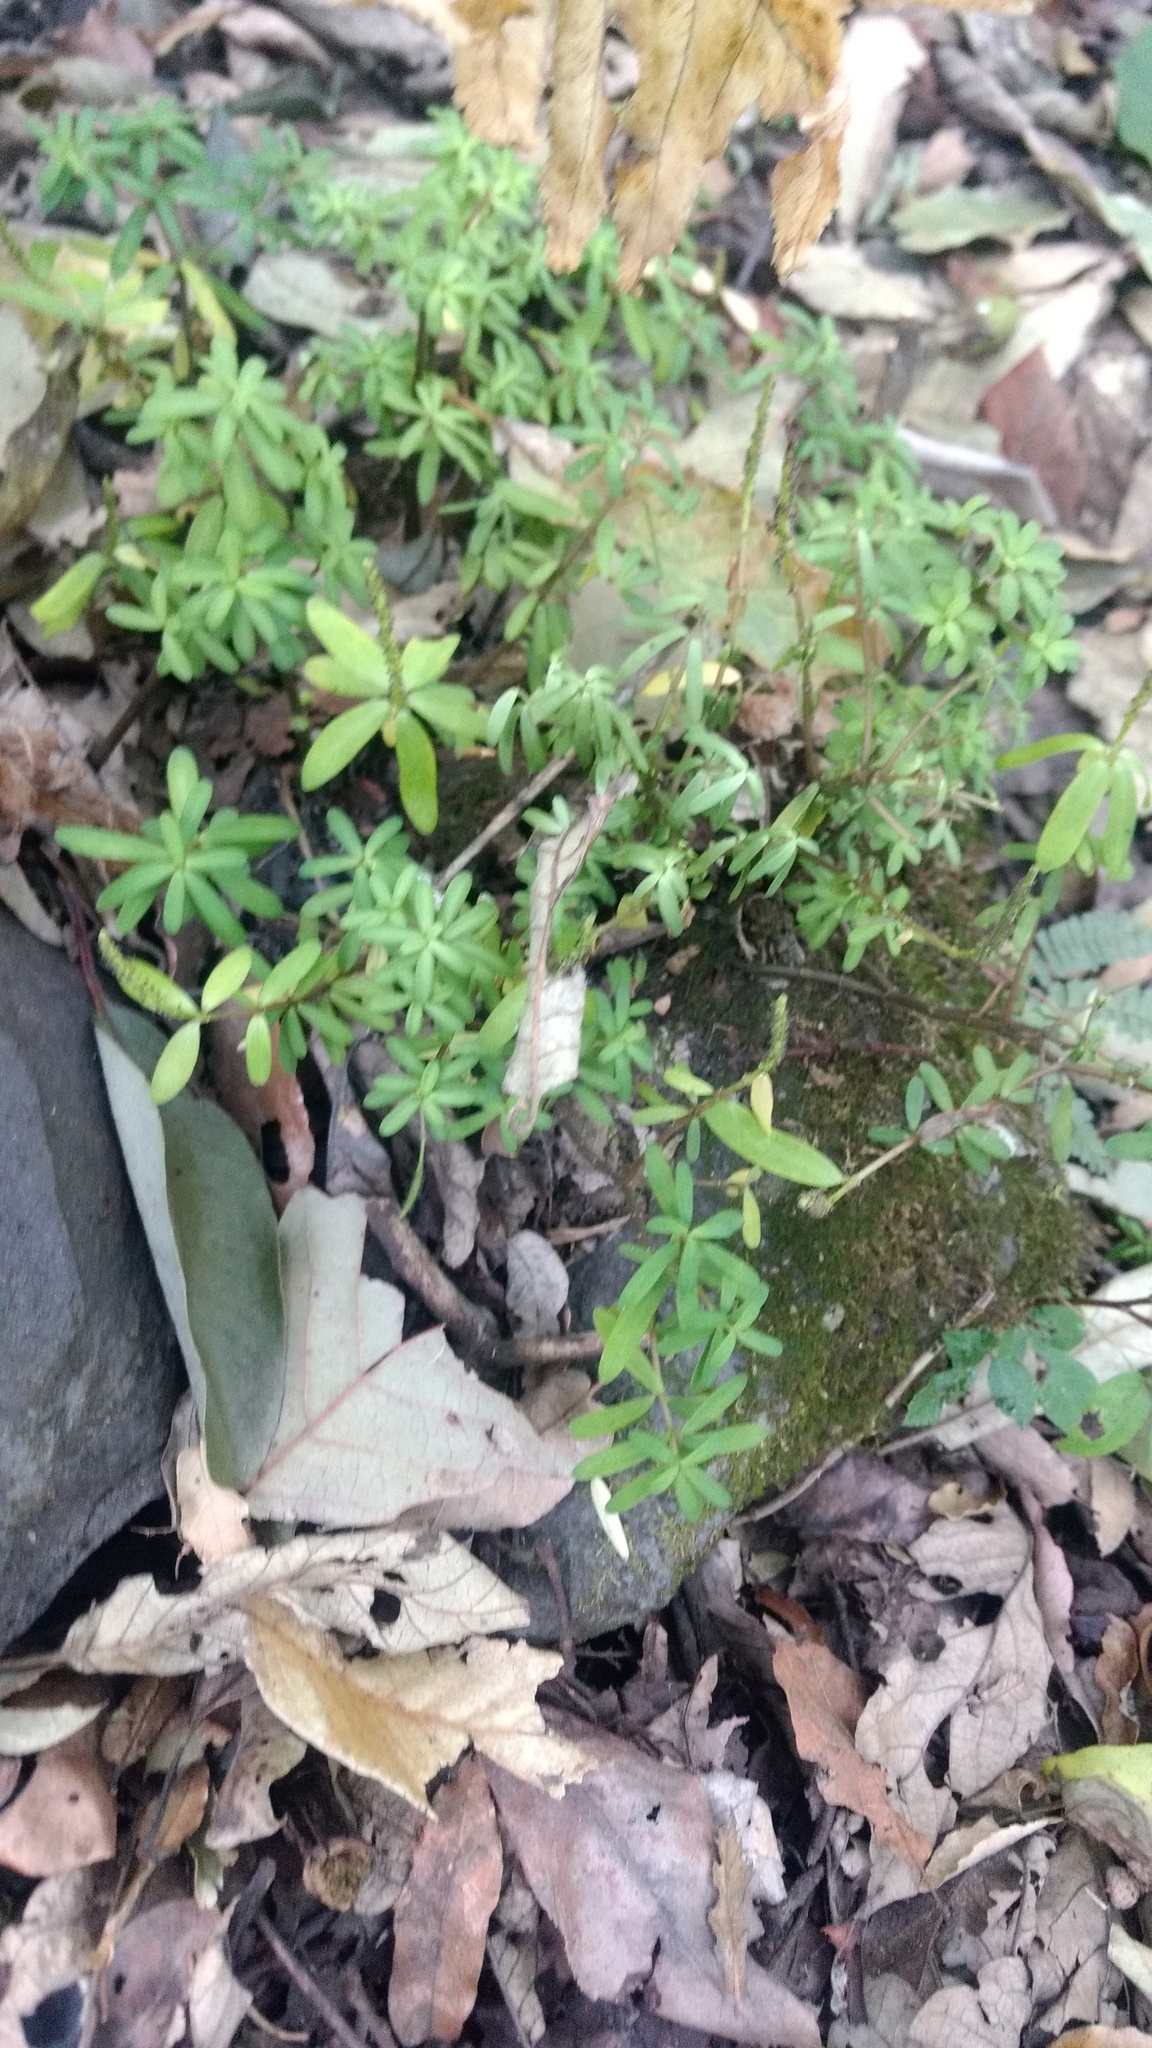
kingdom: Plantae
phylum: Tracheophyta
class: Magnoliopsida
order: Piperales
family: Piperaceae
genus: Peperomia
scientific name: Peperomia leptophylla
